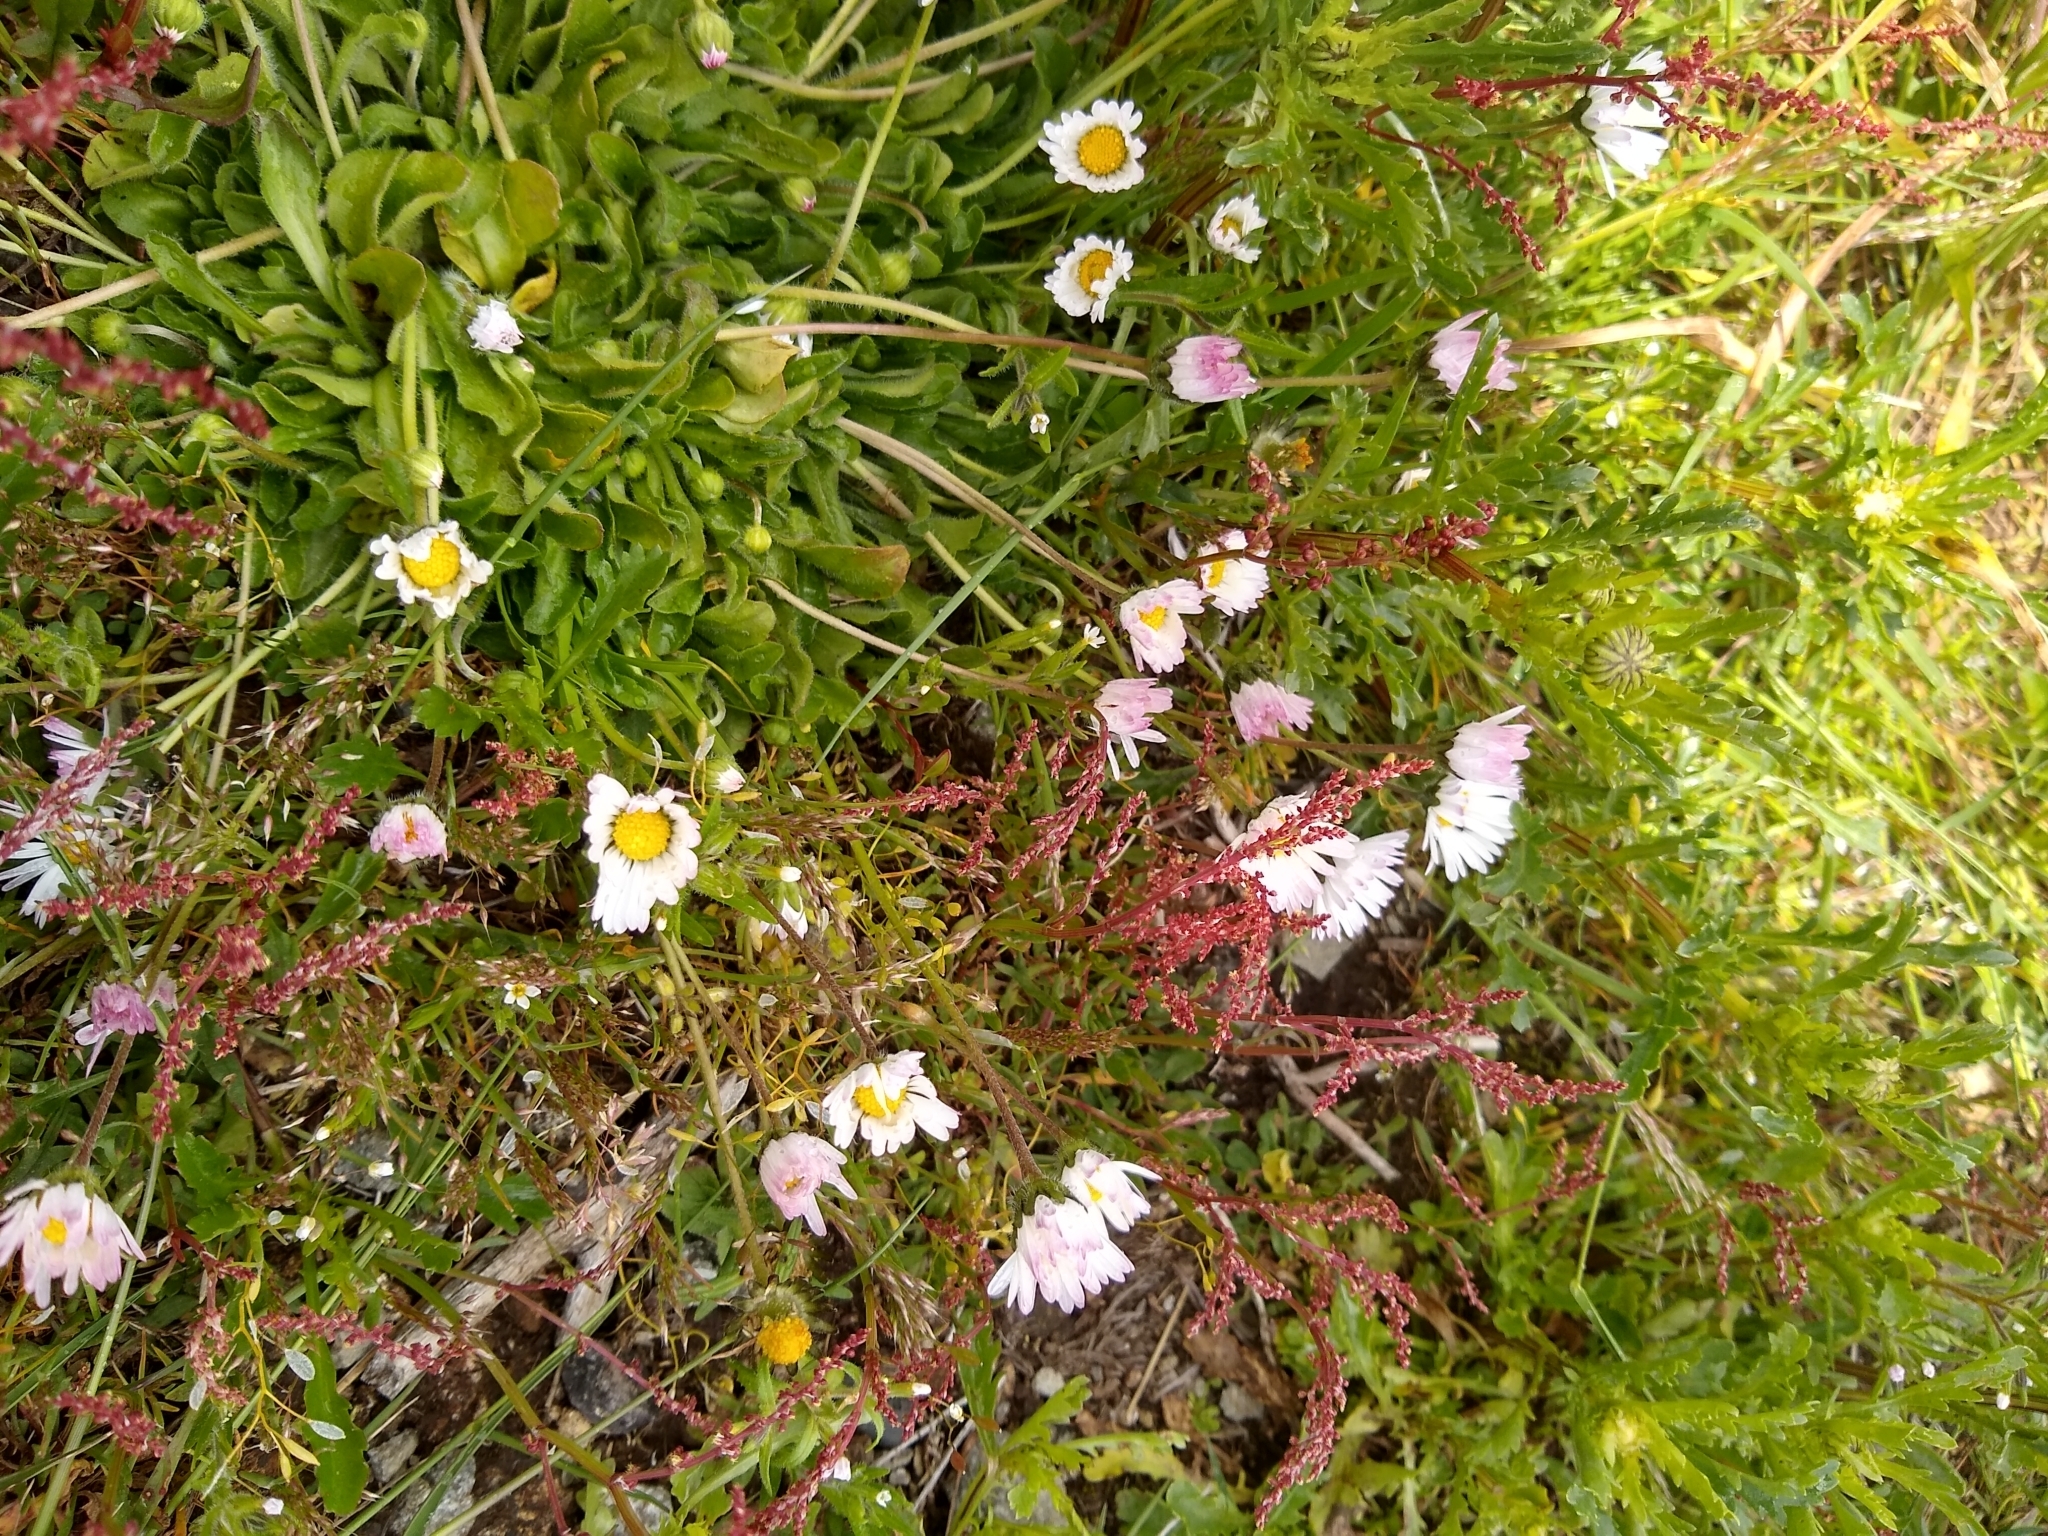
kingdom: Plantae
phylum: Tracheophyta
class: Magnoliopsida
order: Asterales
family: Asteraceae
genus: Bellis
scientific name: Bellis perennis
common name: Lawndaisy
